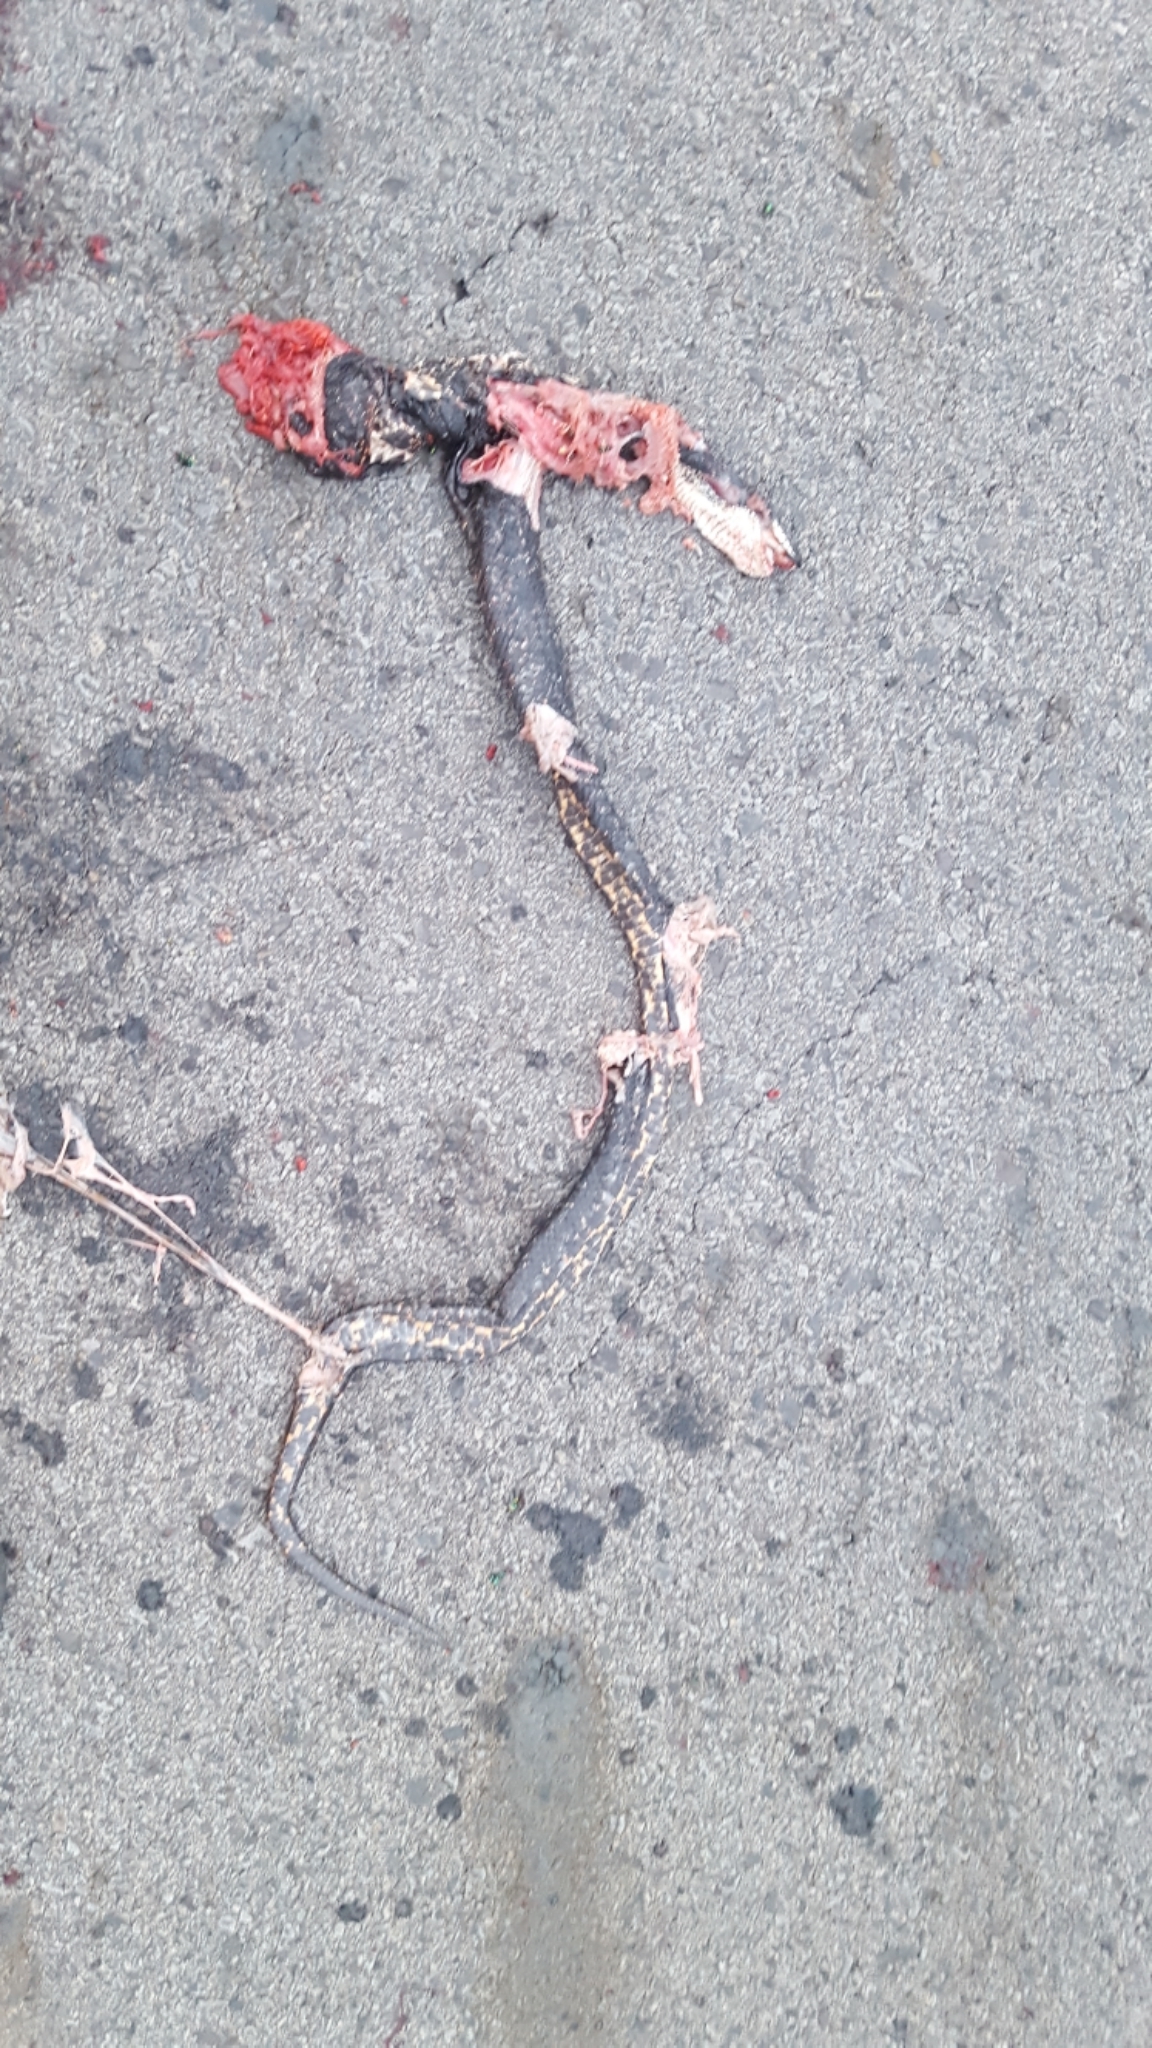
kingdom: Animalia
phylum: Chordata
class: Squamata
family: Colubridae
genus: Pantherophis
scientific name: Pantherophis obsoletus
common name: Black rat snake
